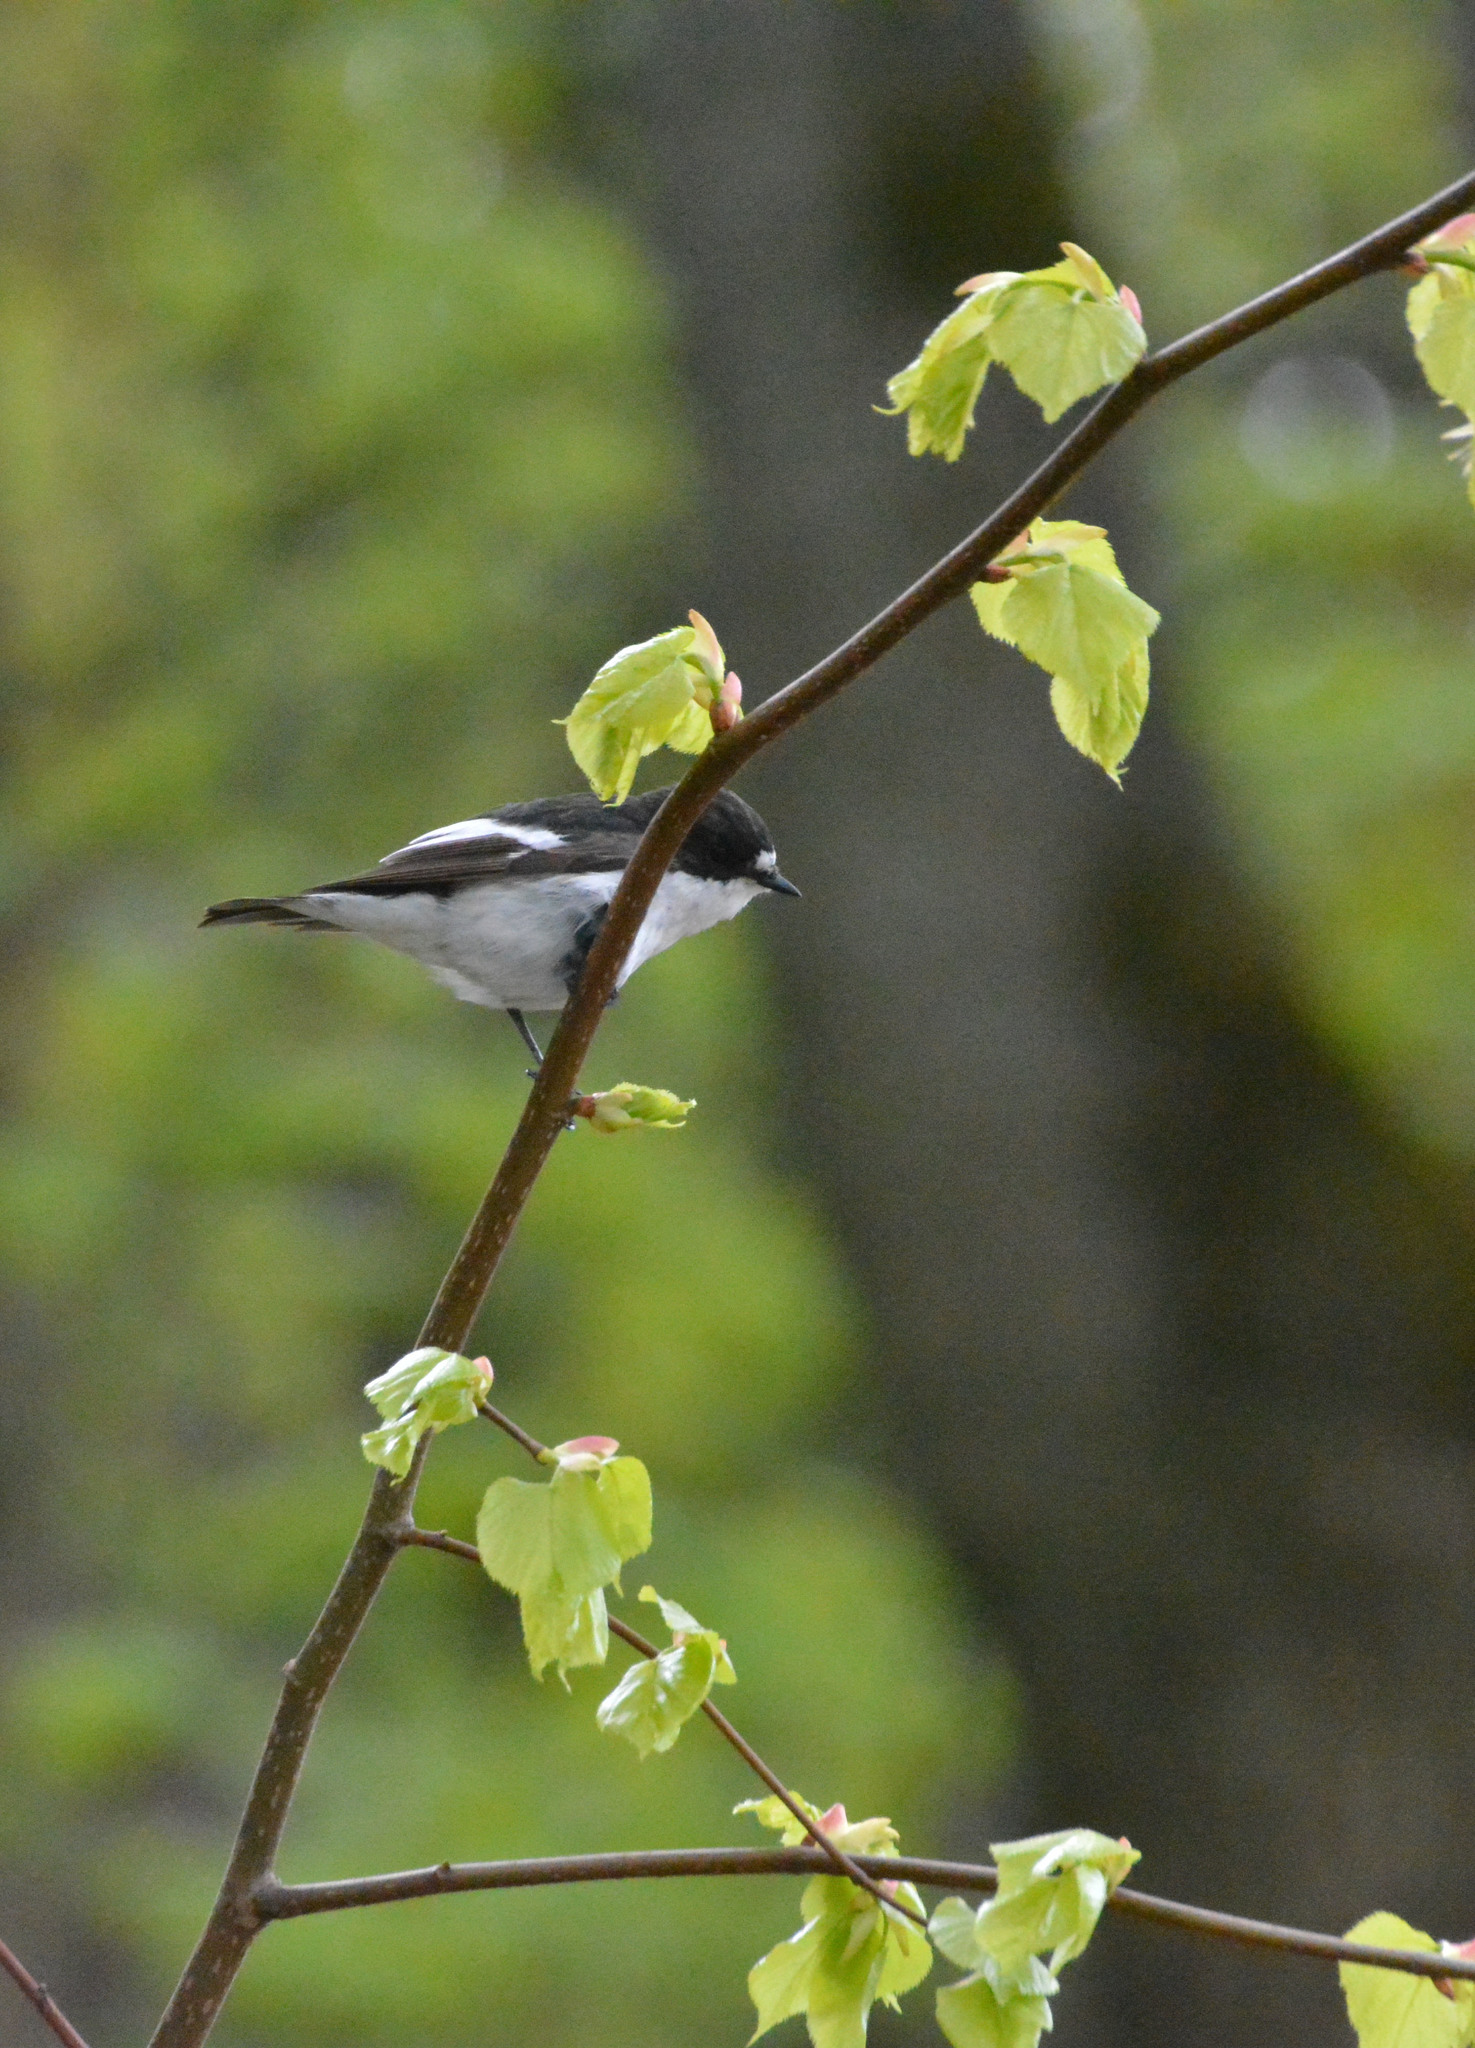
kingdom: Animalia
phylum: Chordata
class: Aves
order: Passeriformes
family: Muscicapidae
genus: Ficedula
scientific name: Ficedula hypoleuca
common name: European pied flycatcher
